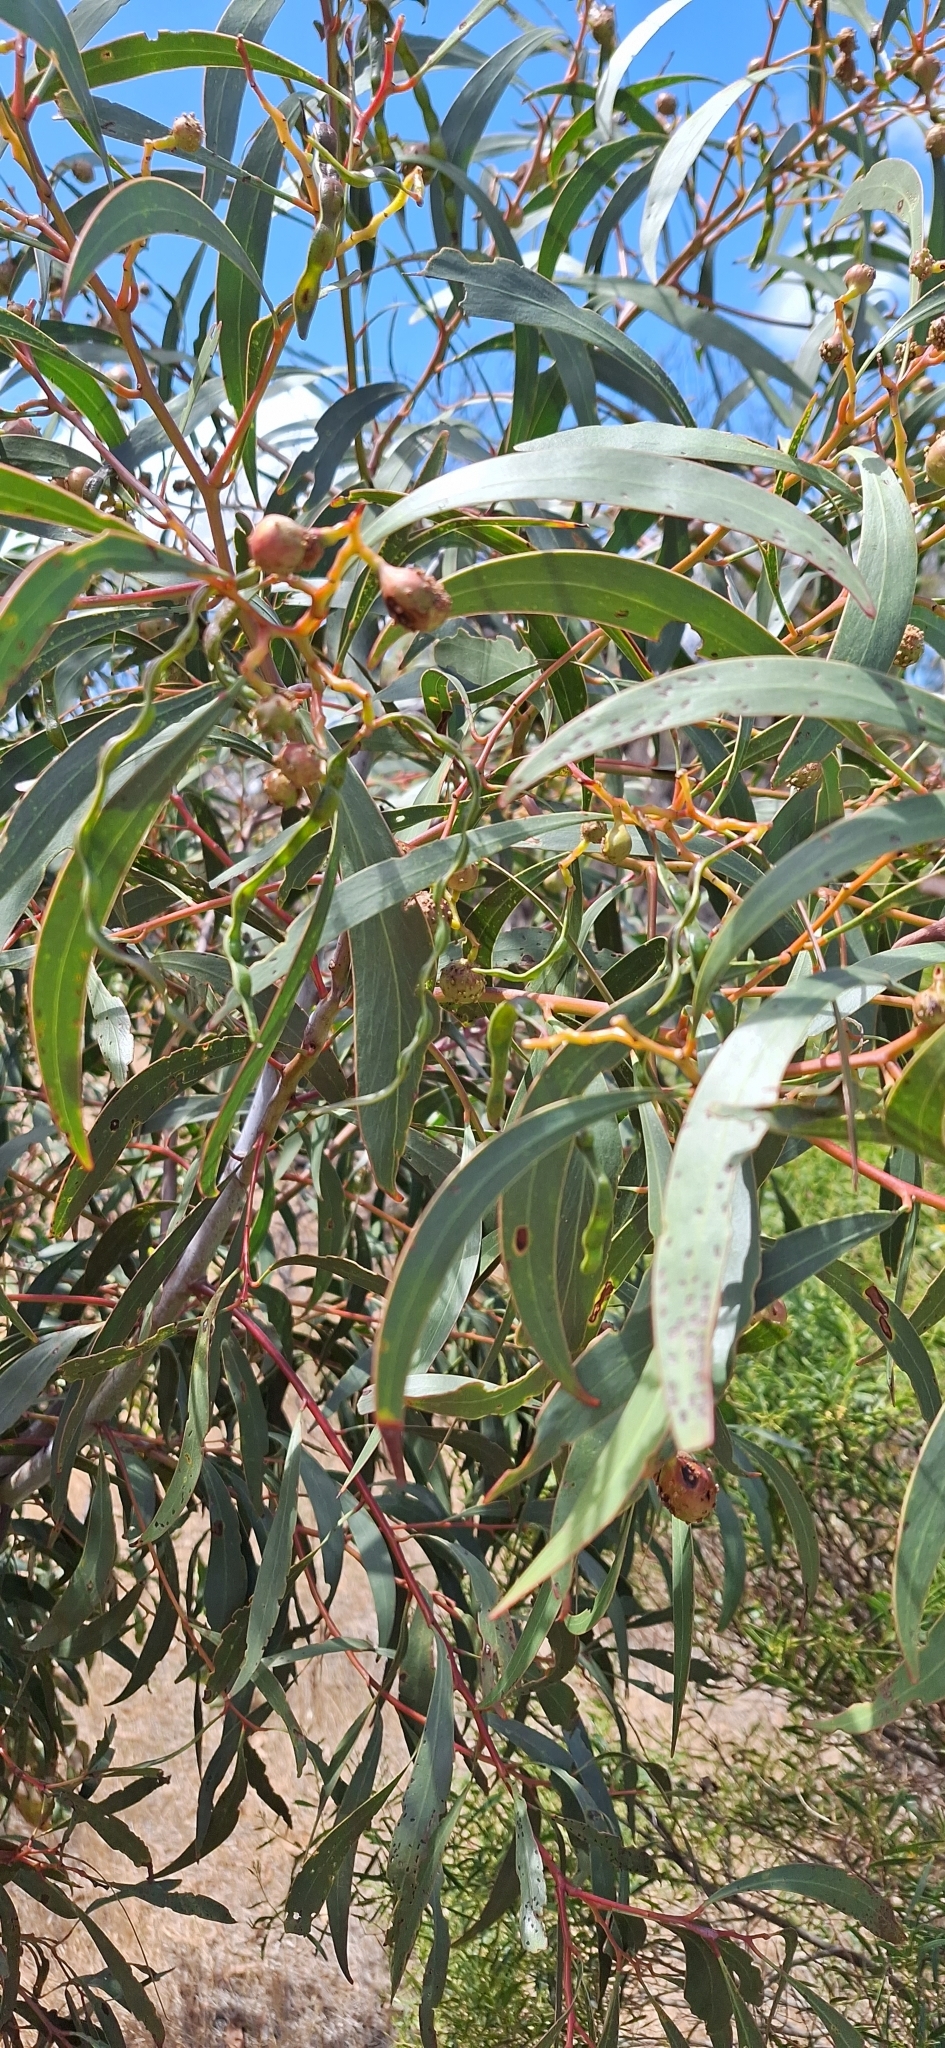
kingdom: Plantae
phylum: Tracheophyta
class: Magnoliopsida
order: Fabales
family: Fabaceae
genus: Acacia
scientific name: Acacia pycnantha
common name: Golden wattle
